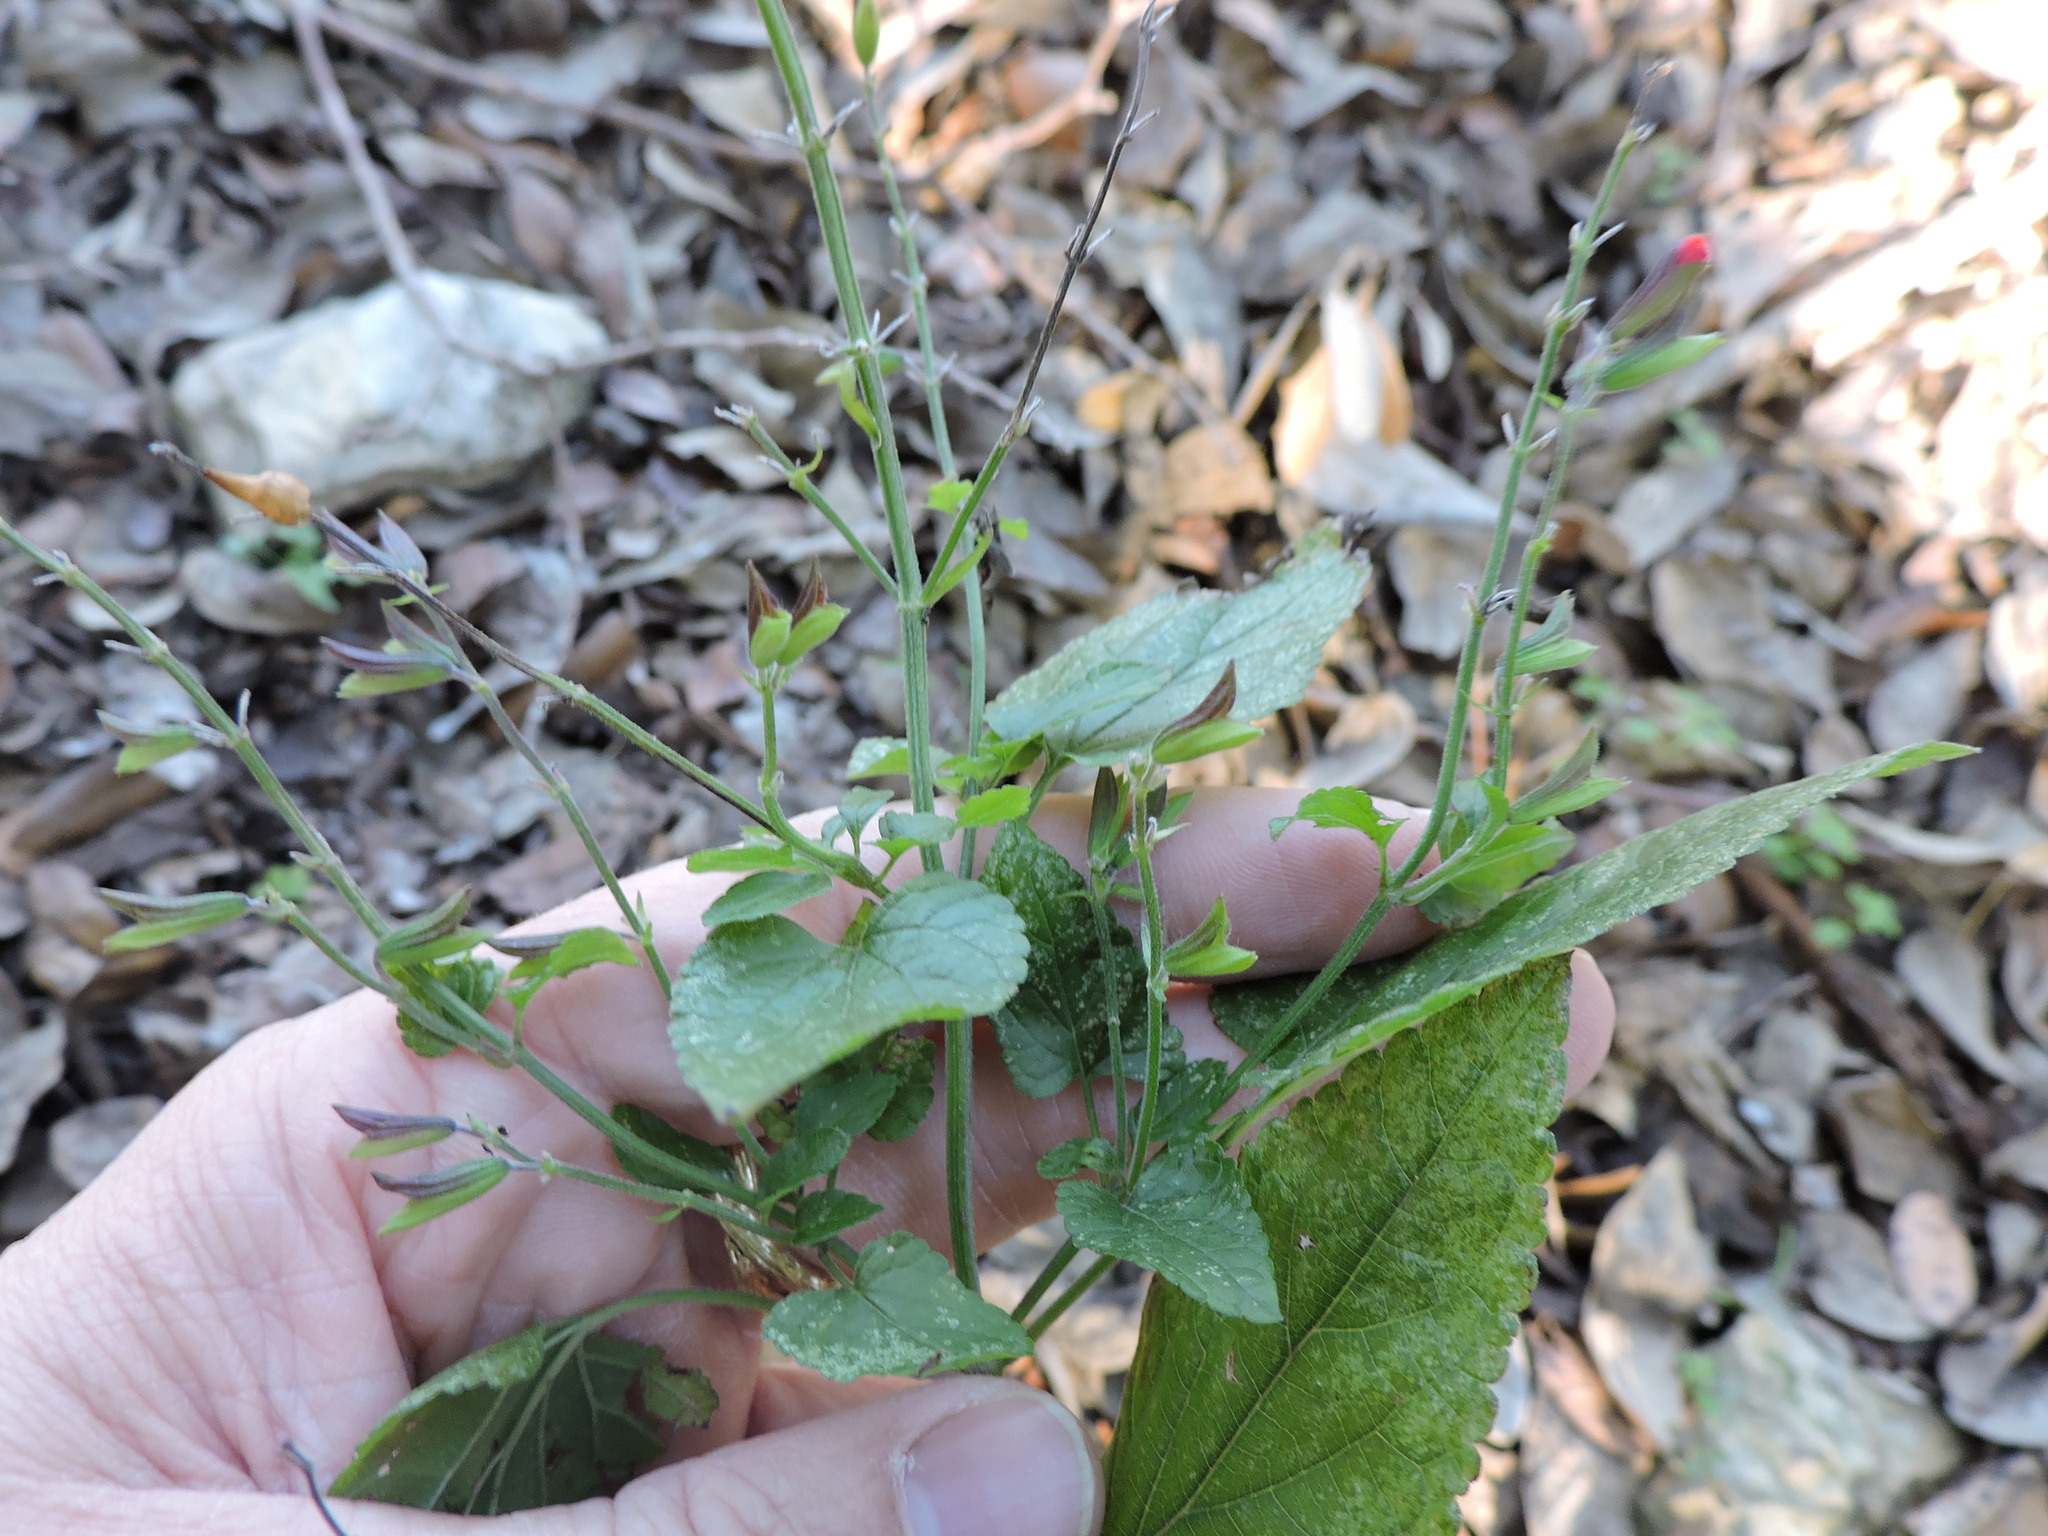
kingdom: Plantae
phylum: Tracheophyta
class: Magnoliopsida
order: Lamiales
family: Lamiaceae
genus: Salvia
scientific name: Salvia coccinea
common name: Blood sage
